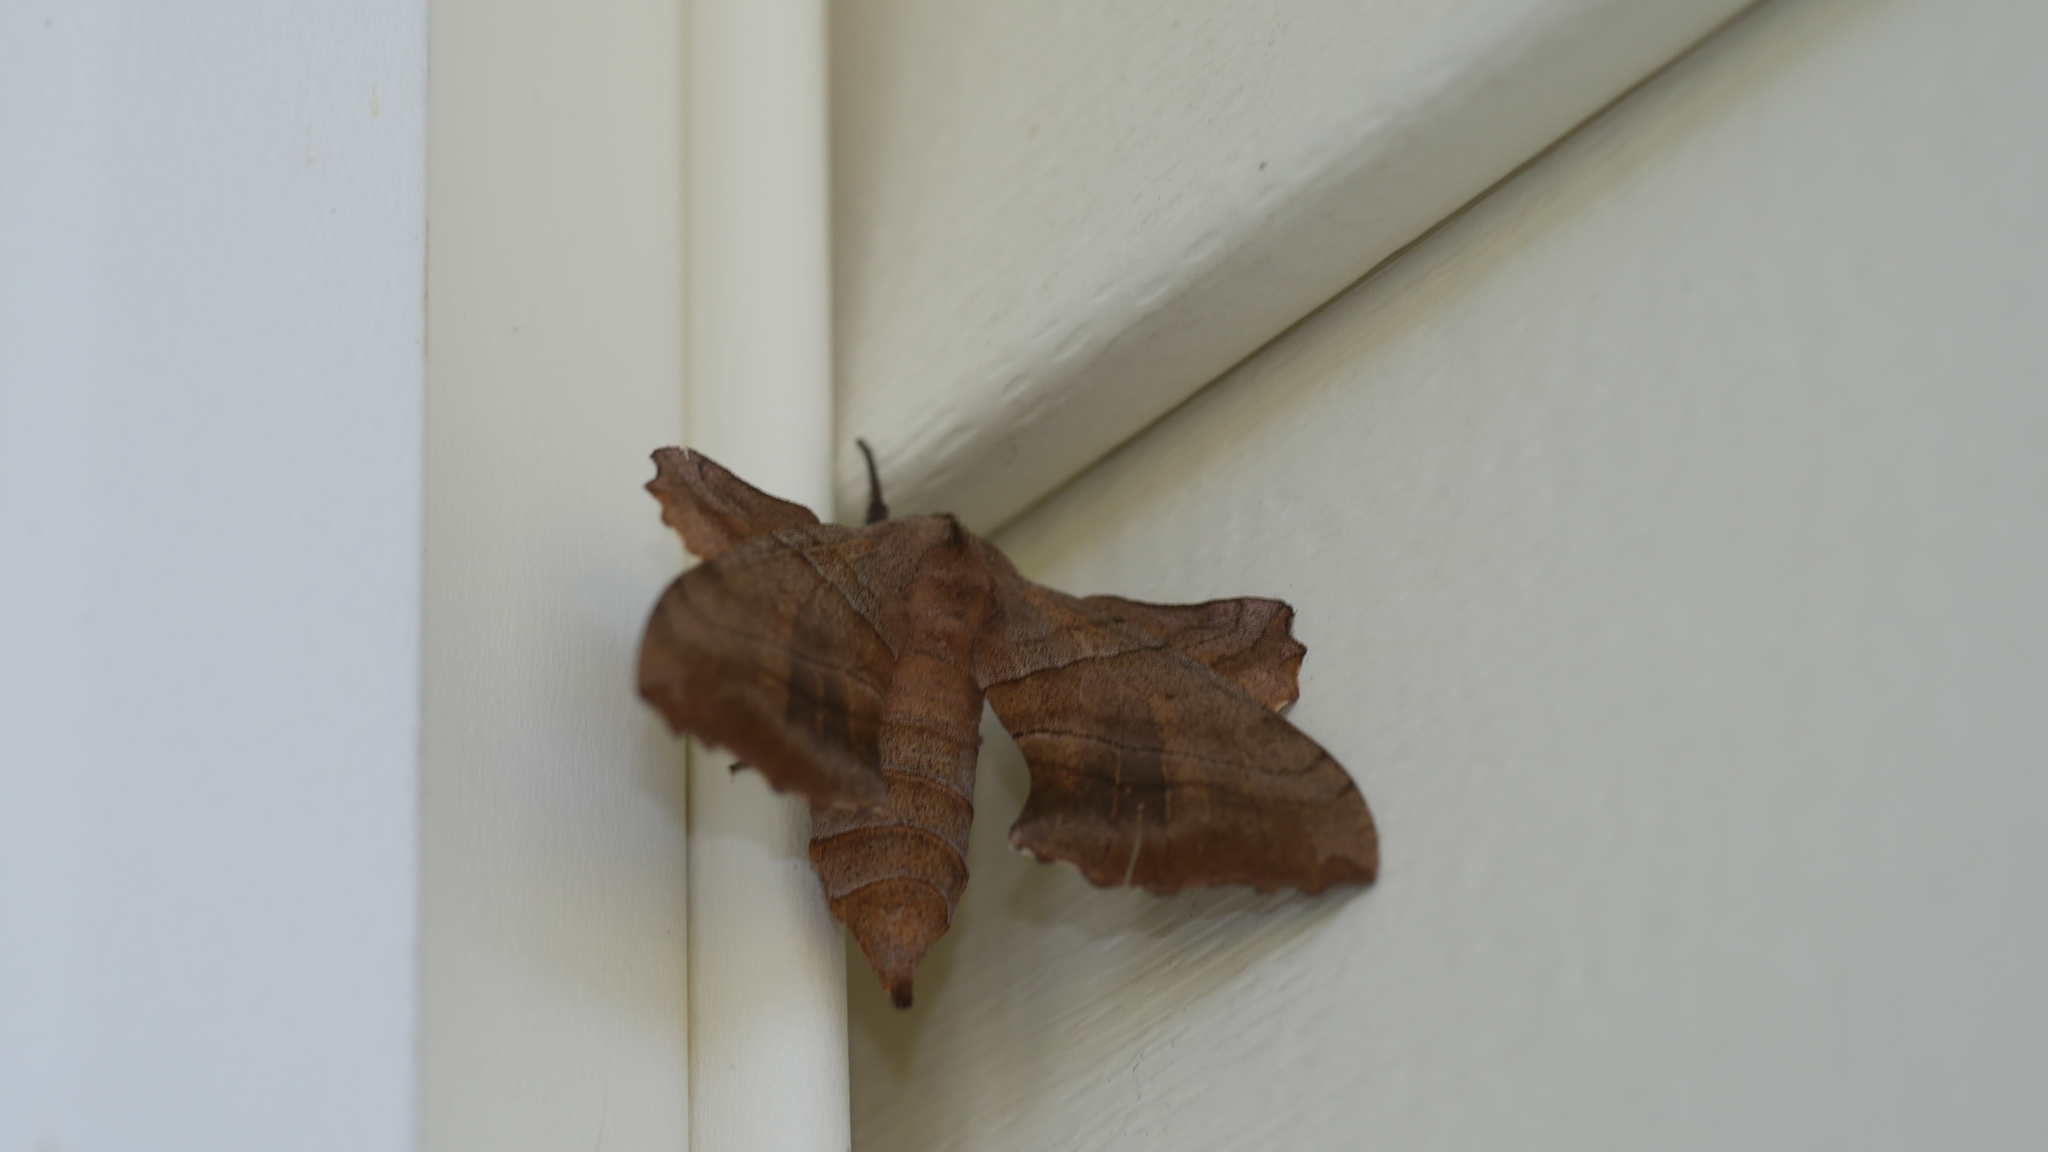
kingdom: Animalia
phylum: Arthropoda
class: Insecta
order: Lepidoptera
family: Sphingidae
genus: Amorpha
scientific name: Amorpha juglandis
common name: Walnut sphinx
